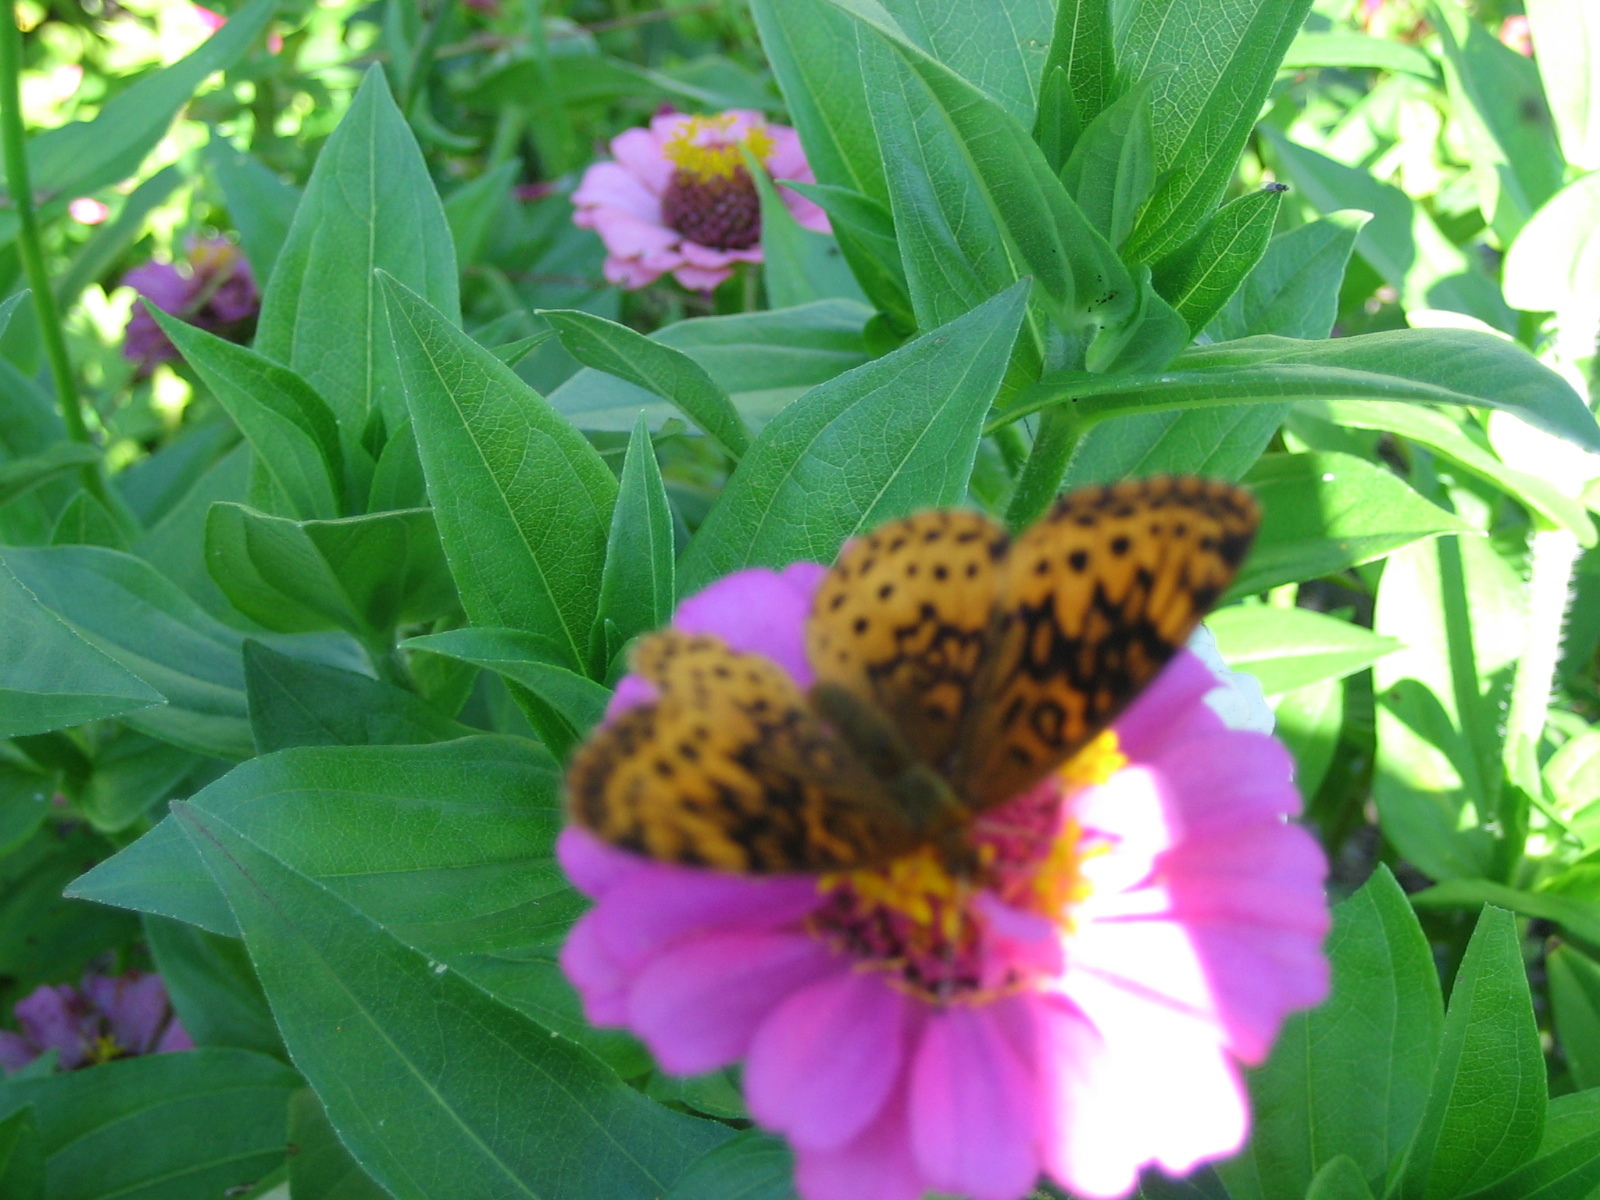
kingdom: Animalia
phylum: Arthropoda
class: Insecta
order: Lepidoptera
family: Nymphalidae
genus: Clossiana
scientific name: Clossiana toddi
